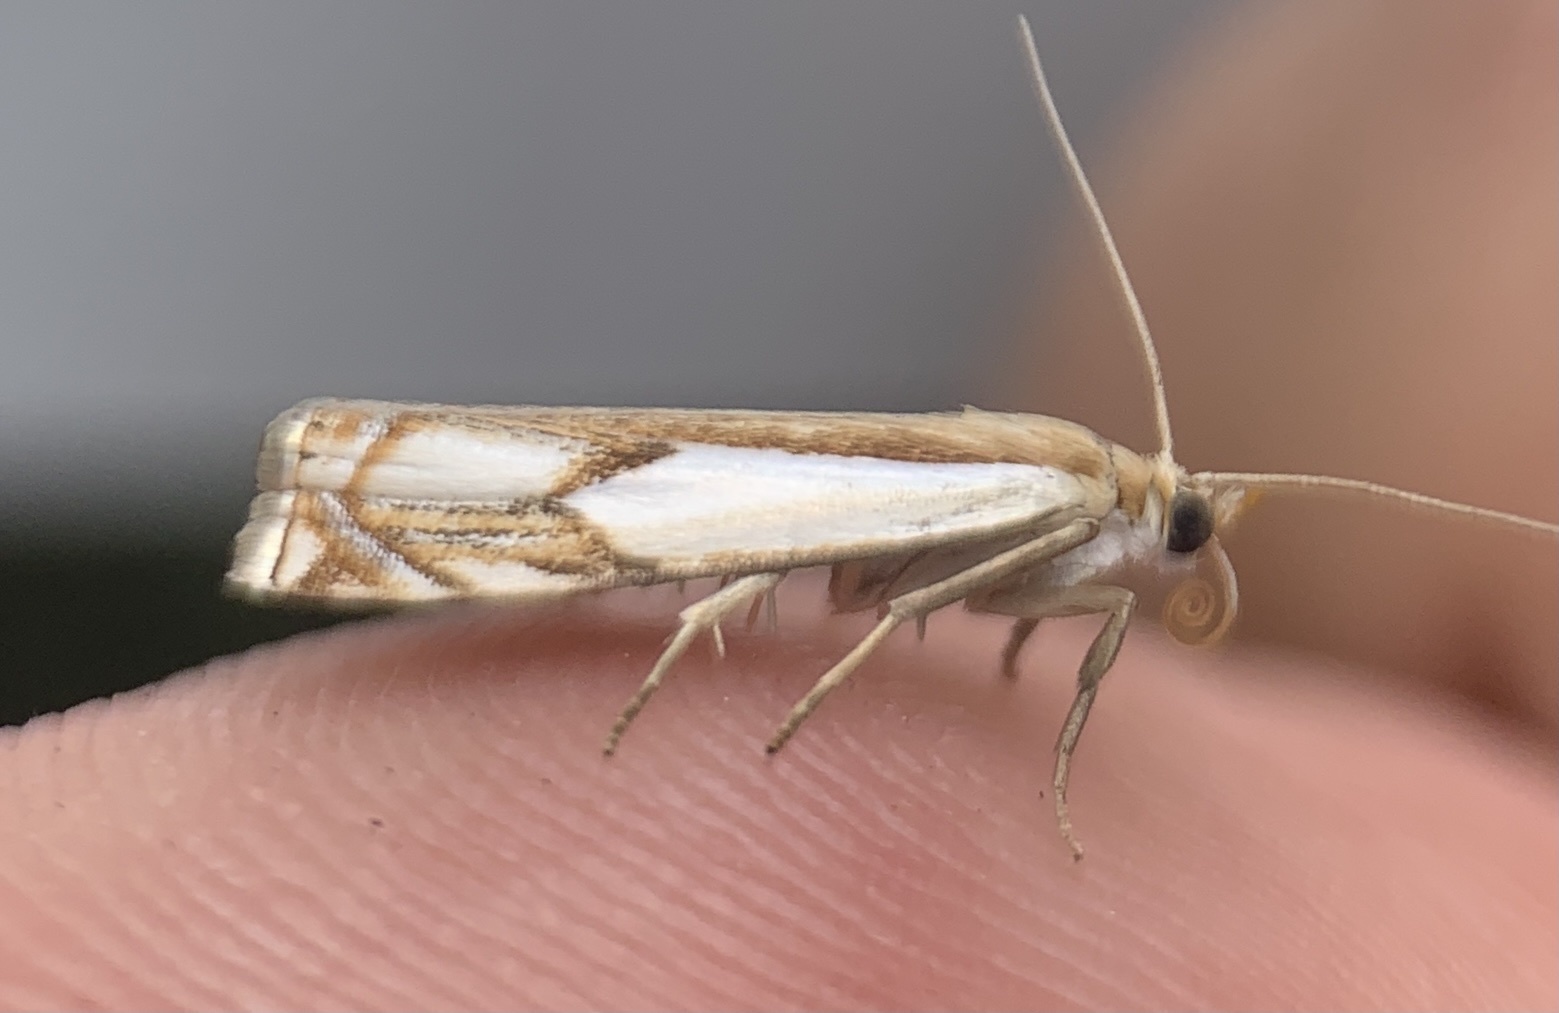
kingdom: Animalia
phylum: Arthropoda
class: Insecta
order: Lepidoptera
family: Crambidae
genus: Crambus
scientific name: Crambus agitatellus
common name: Double-banded grass-veneer
